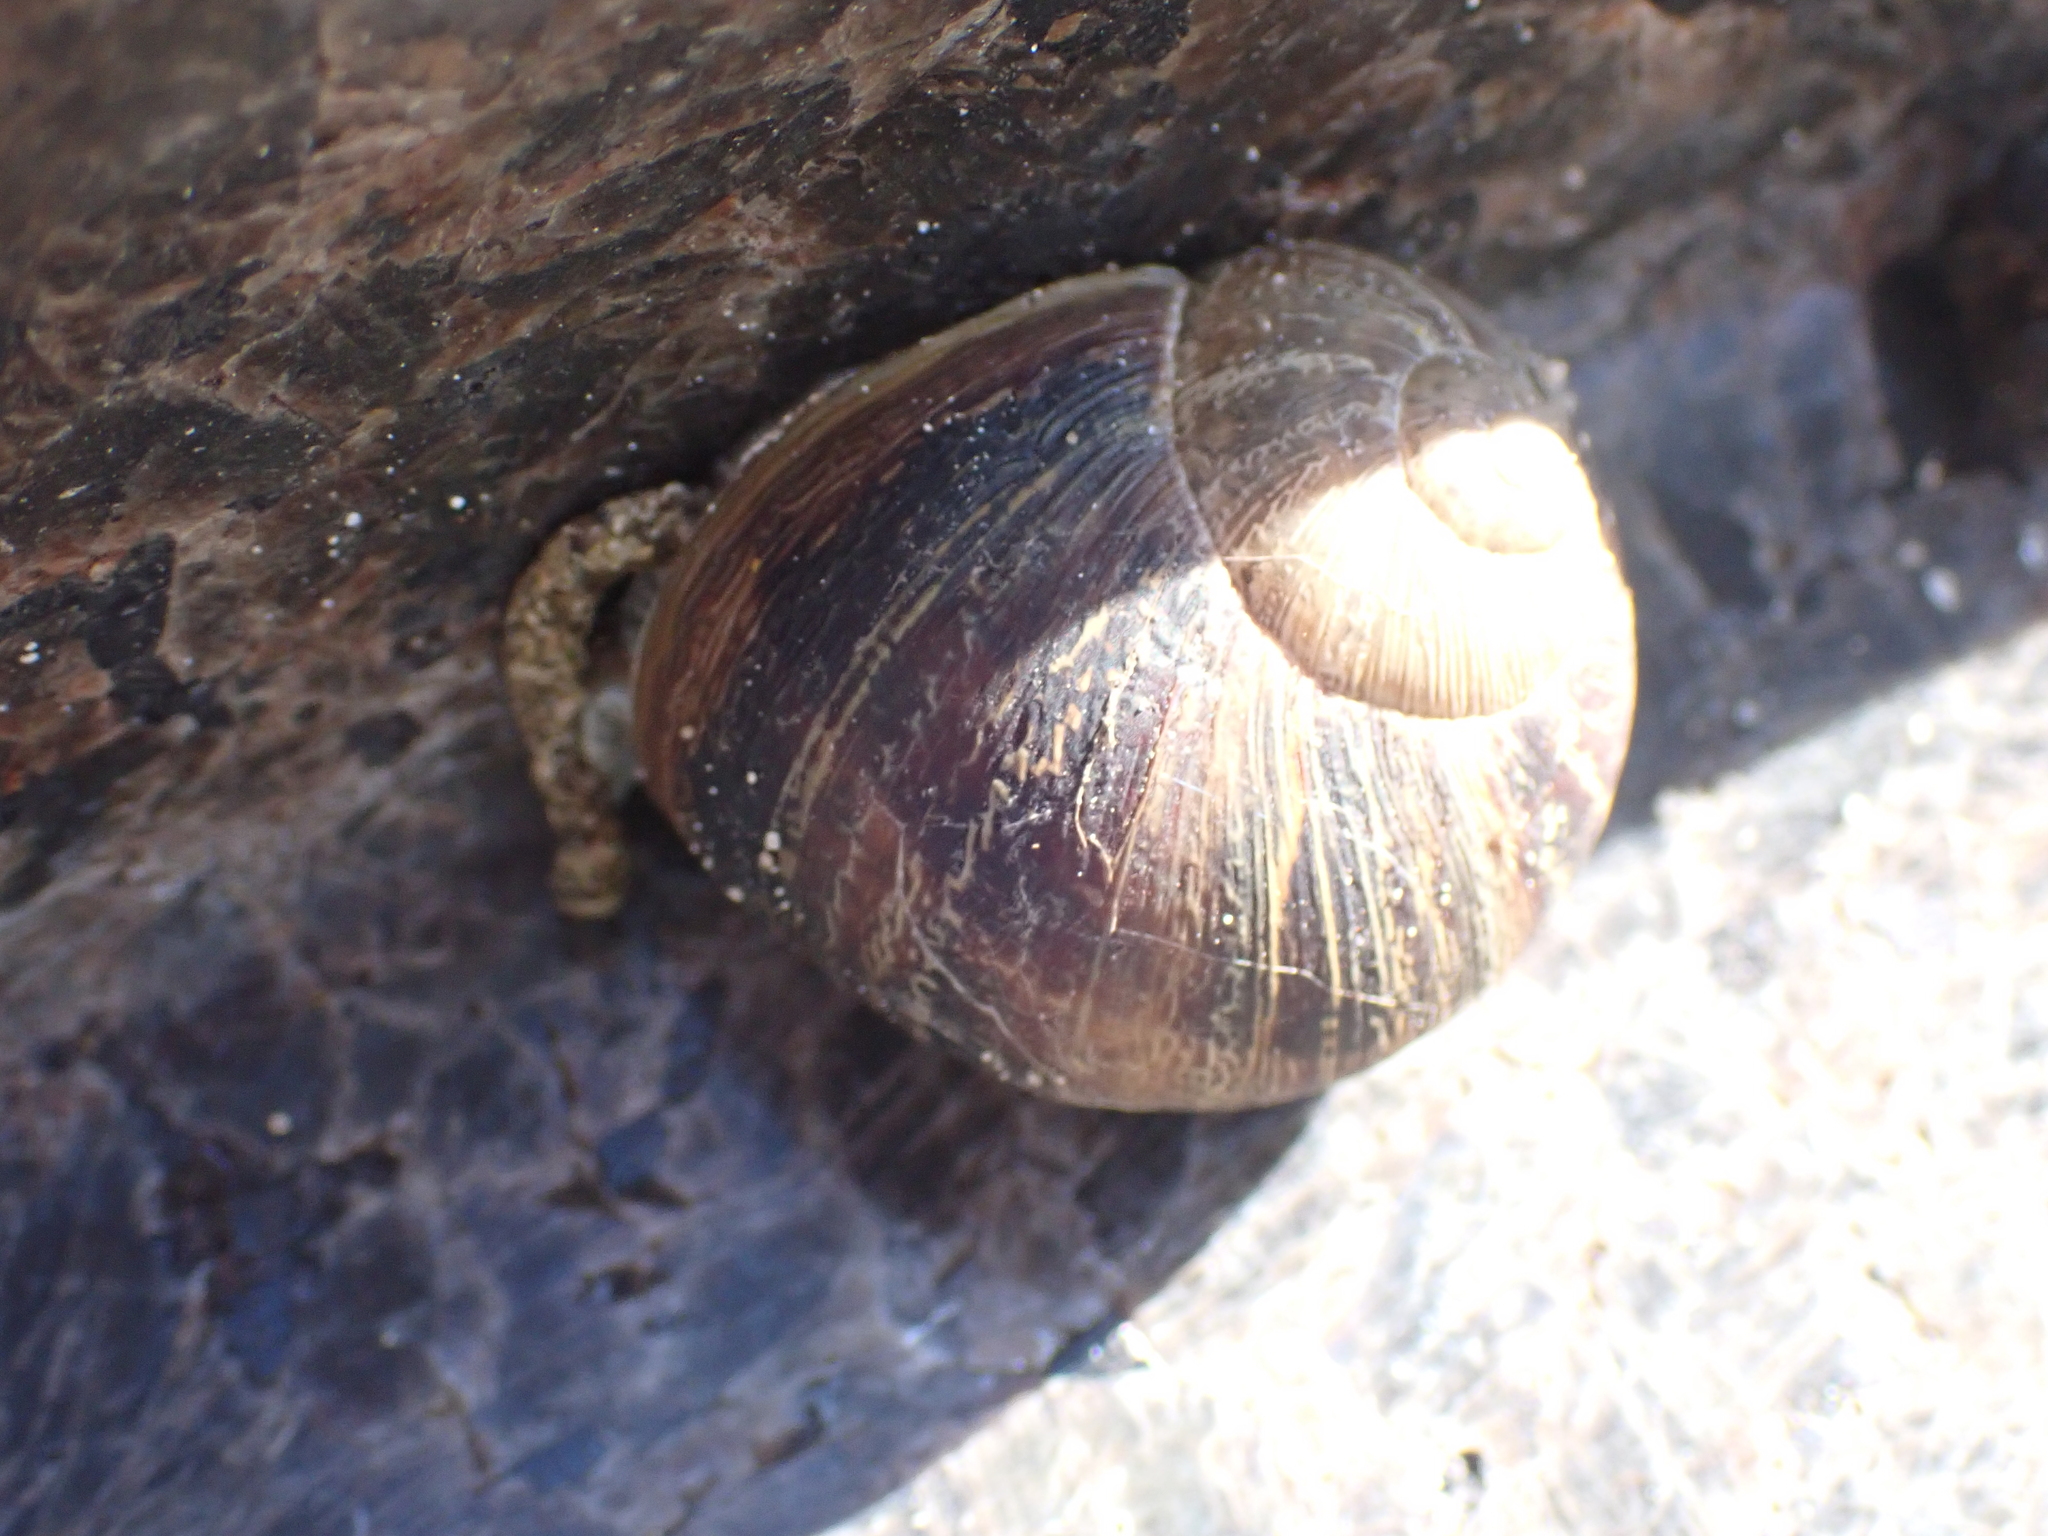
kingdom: Animalia
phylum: Mollusca
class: Gastropoda
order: Stylommatophora
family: Helicidae
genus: Cornu
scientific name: Cornu aspersum
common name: Brown garden snail
